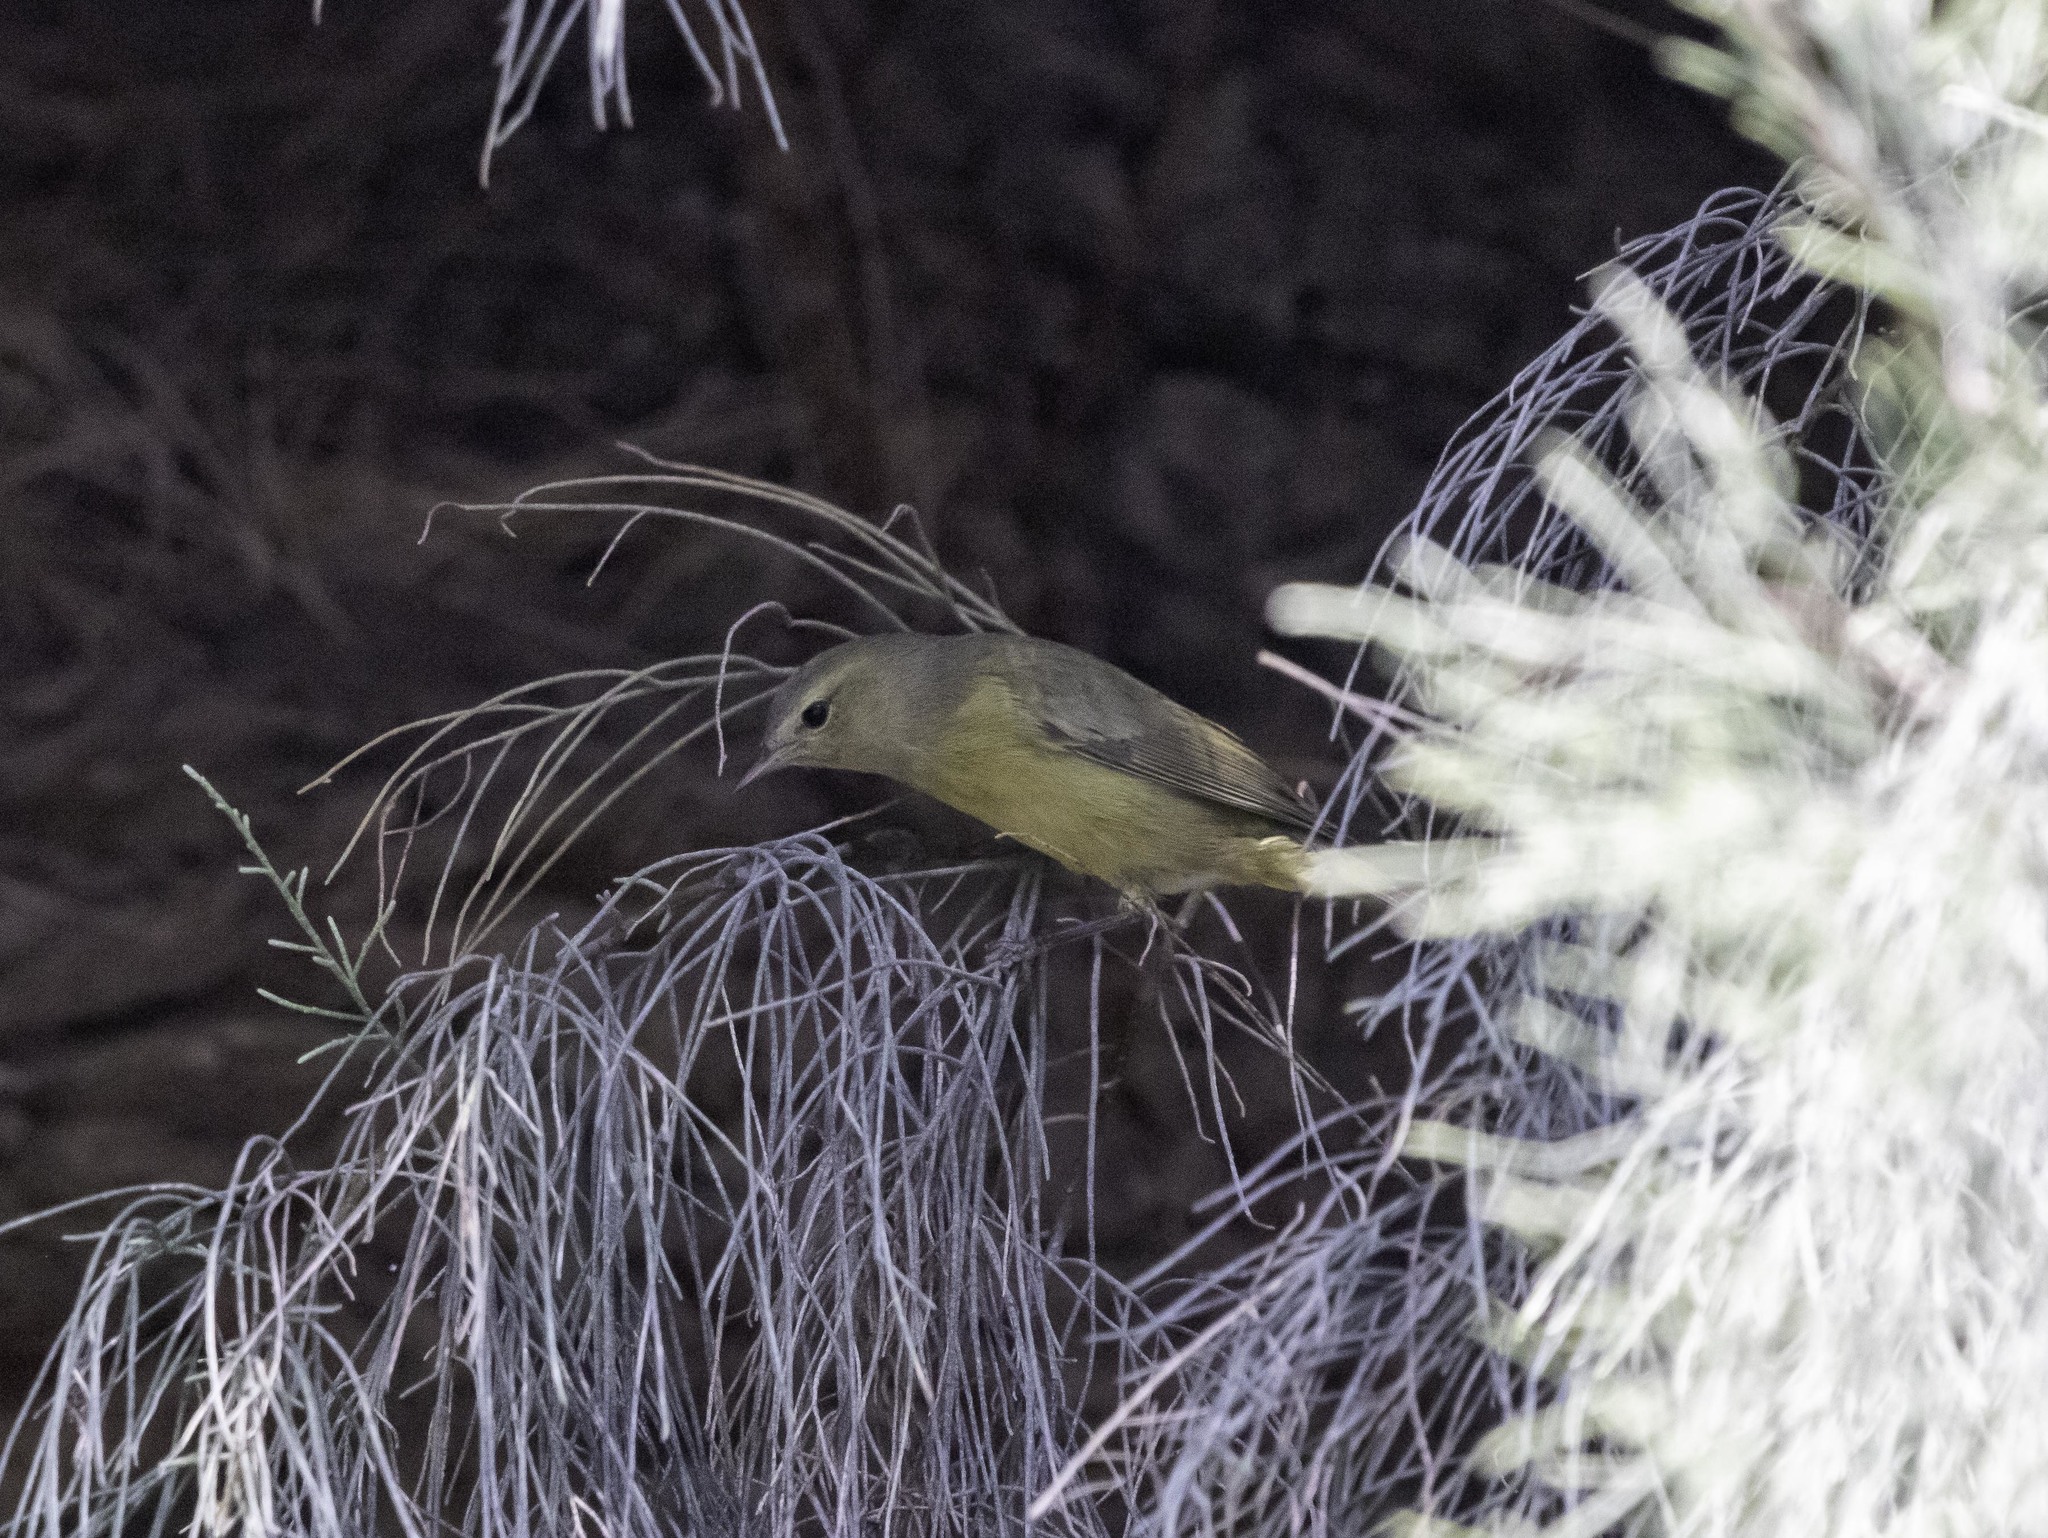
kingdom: Animalia
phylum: Chordata
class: Aves
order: Passeriformes
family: Parulidae
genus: Leiothlypis
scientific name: Leiothlypis celata
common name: Orange-crowned warbler
